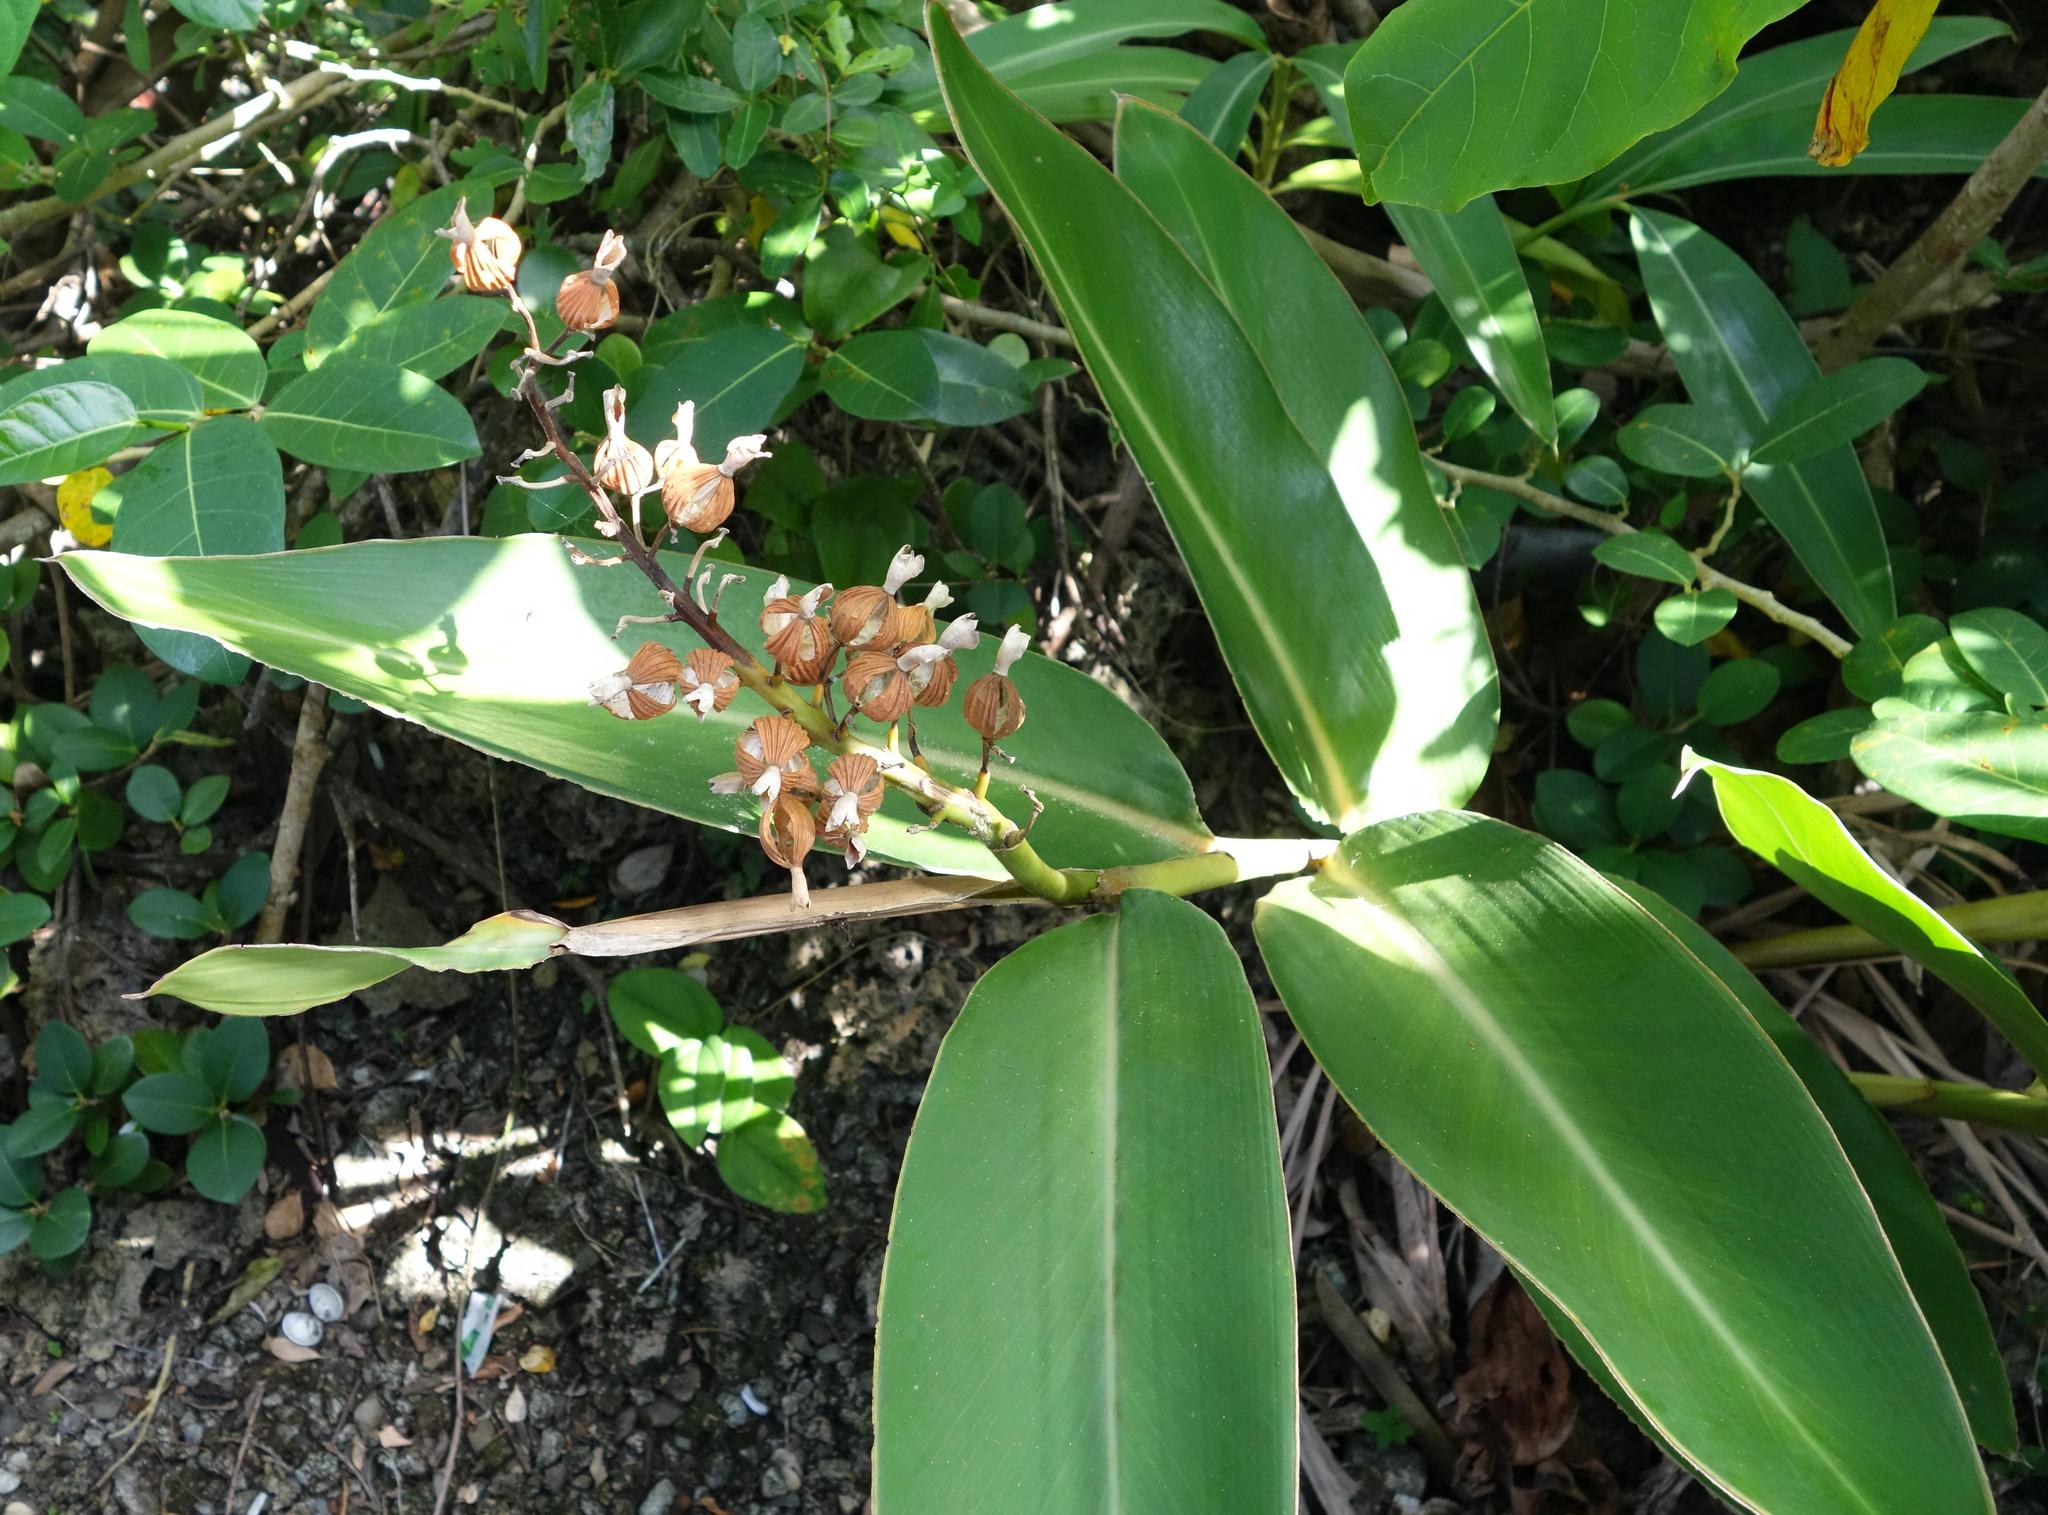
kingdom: Plantae
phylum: Tracheophyta
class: Liliopsida
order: Zingiberales
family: Zingiberaceae
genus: Alpinia
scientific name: Alpinia koshunensis
